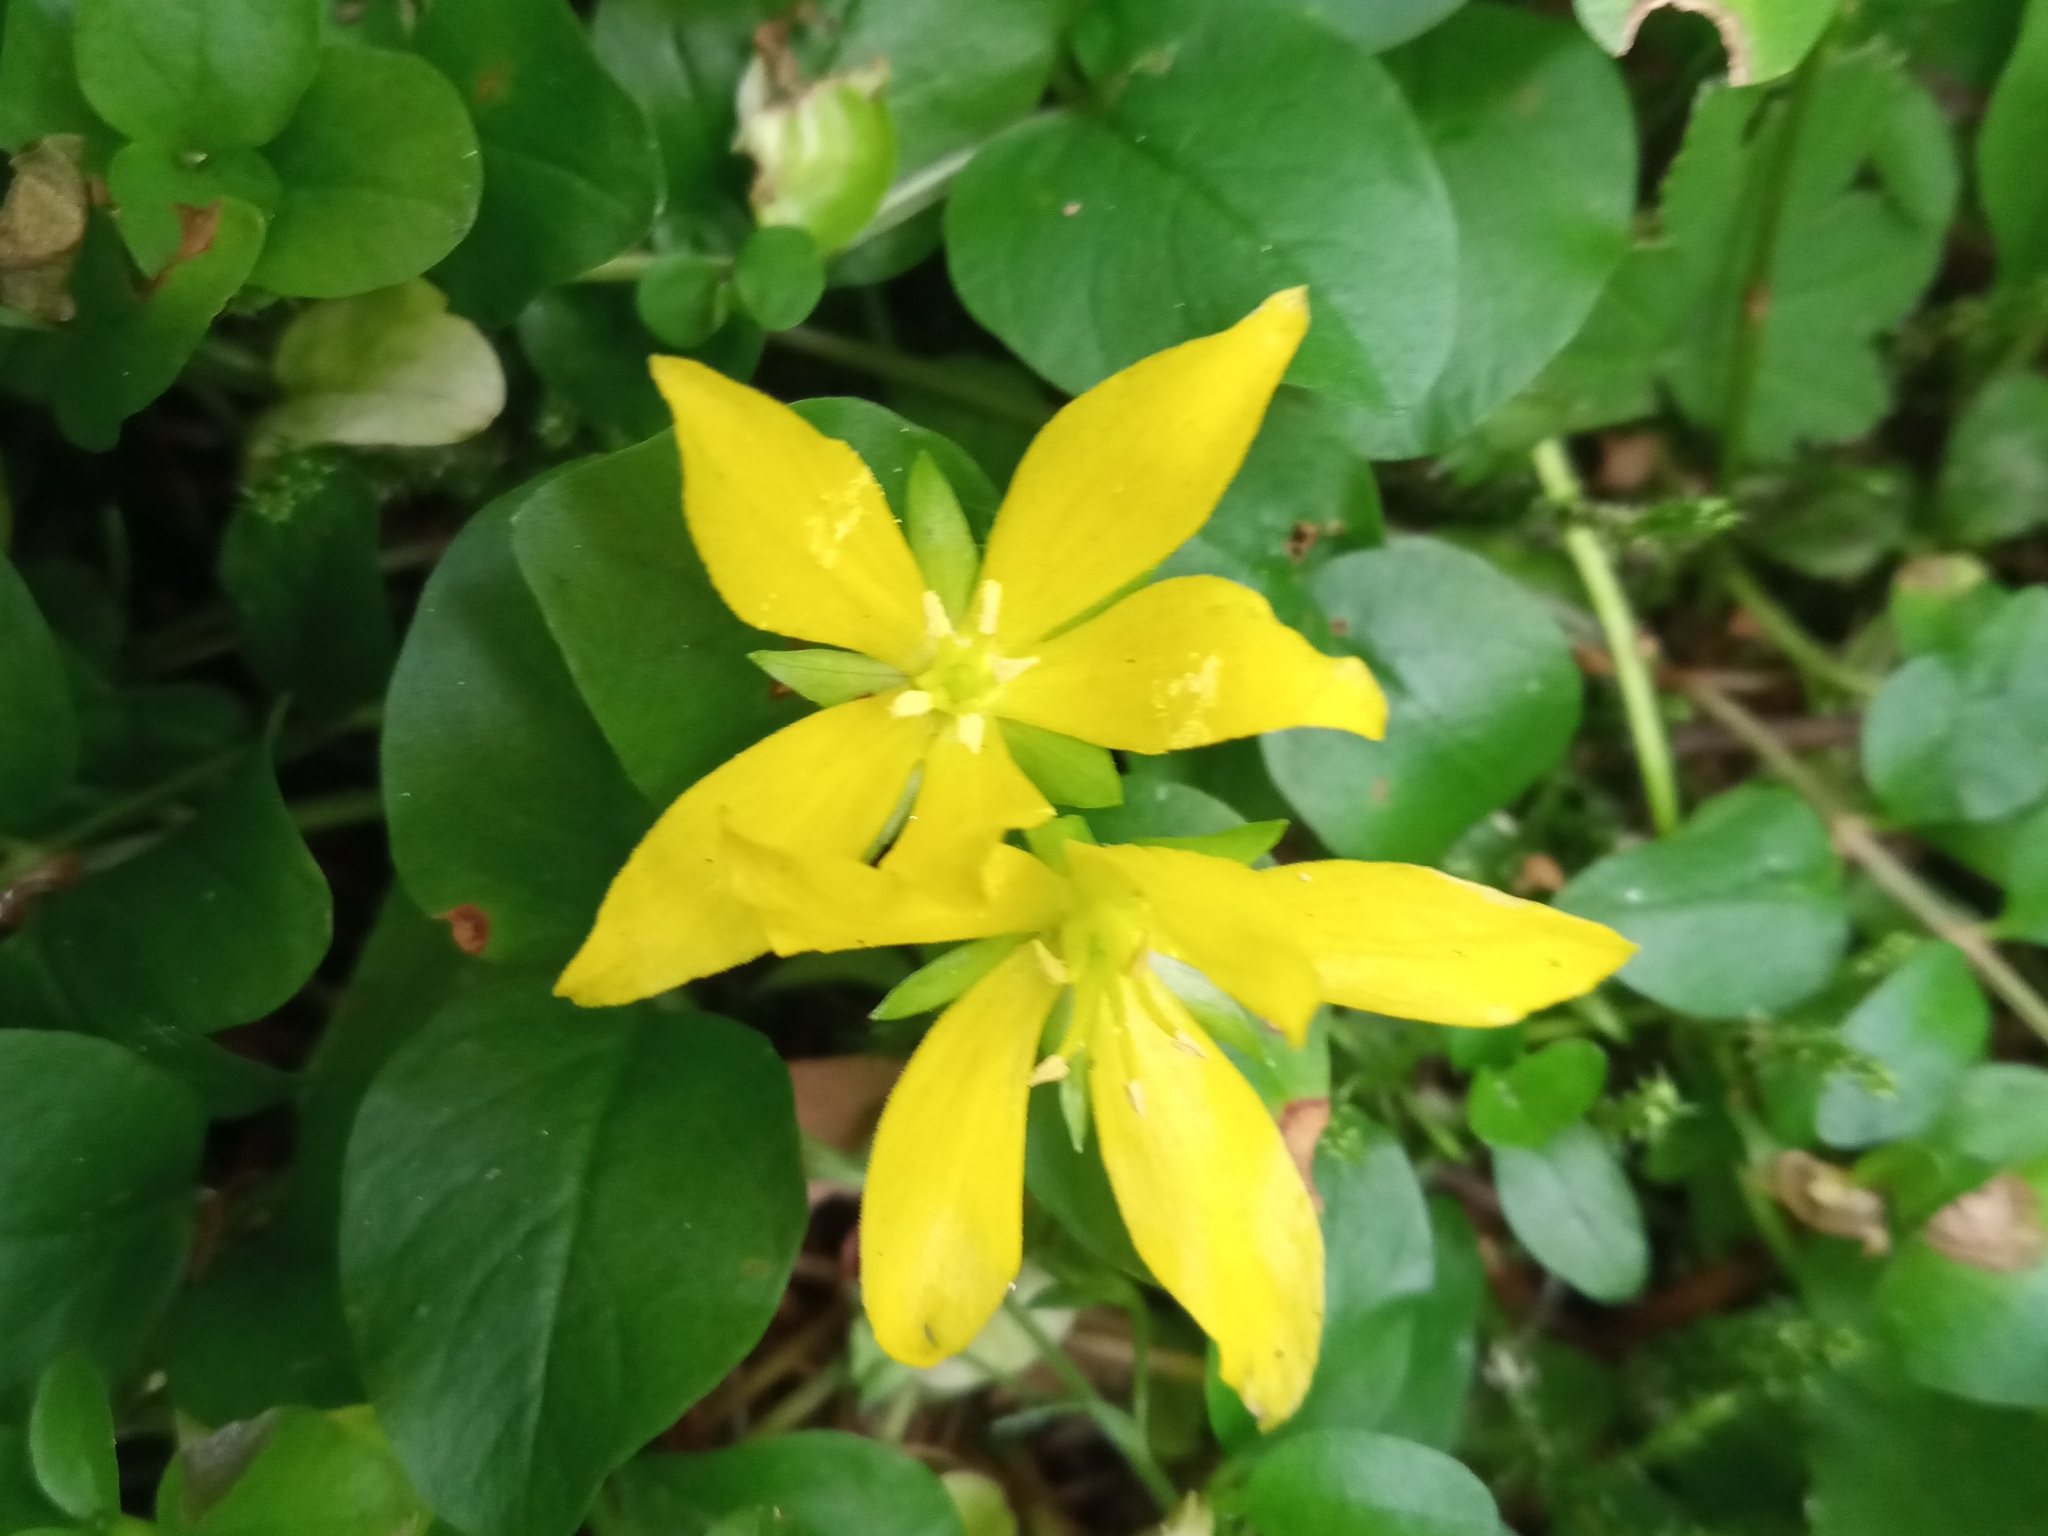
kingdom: Plantae
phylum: Tracheophyta
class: Magnoliopsida
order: Ericales
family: Primulaceae
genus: Lysimachia
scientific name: Lysimachia nummularia
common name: Moneywort
